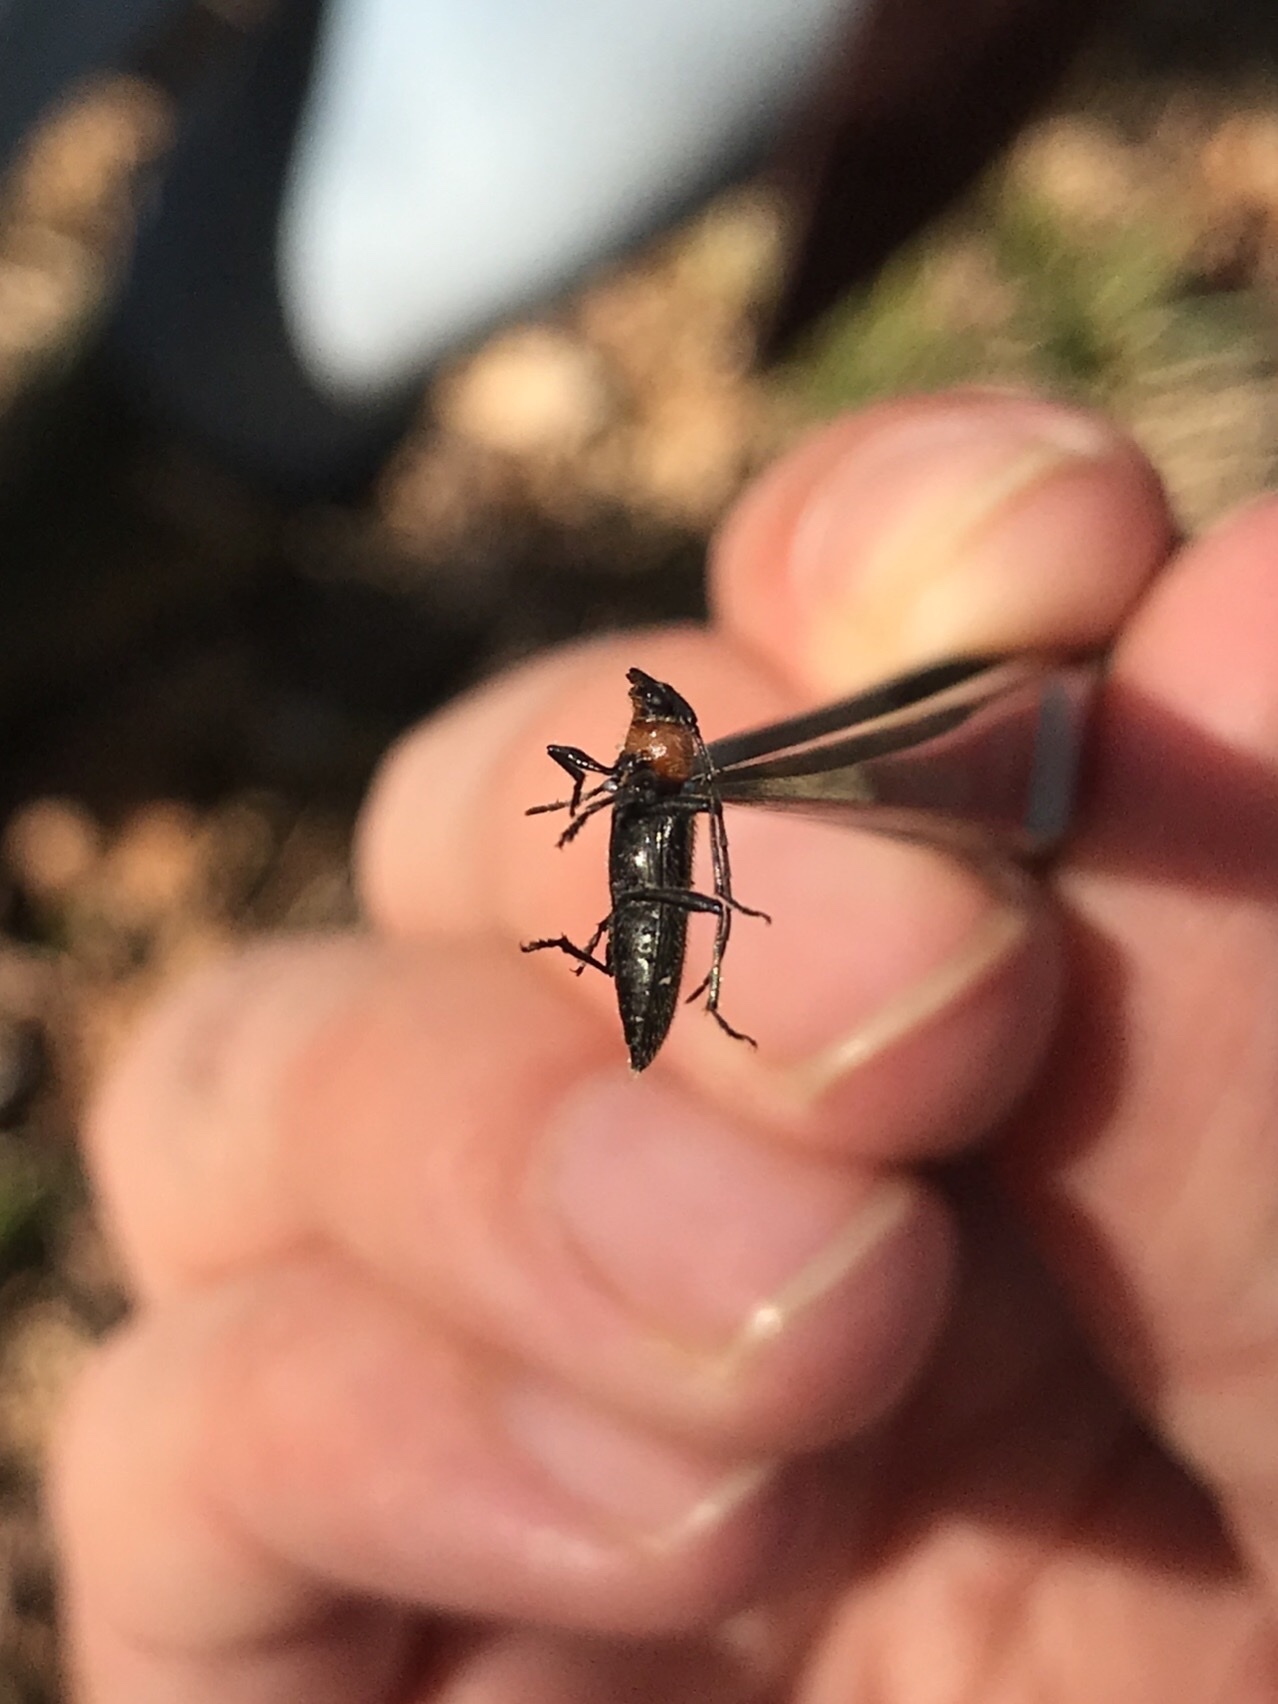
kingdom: Animalia
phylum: Arthropoda
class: Insecta
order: Coleoptera
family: Cerambycidae
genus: Stenosphenus
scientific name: Stenosphenus notatus
